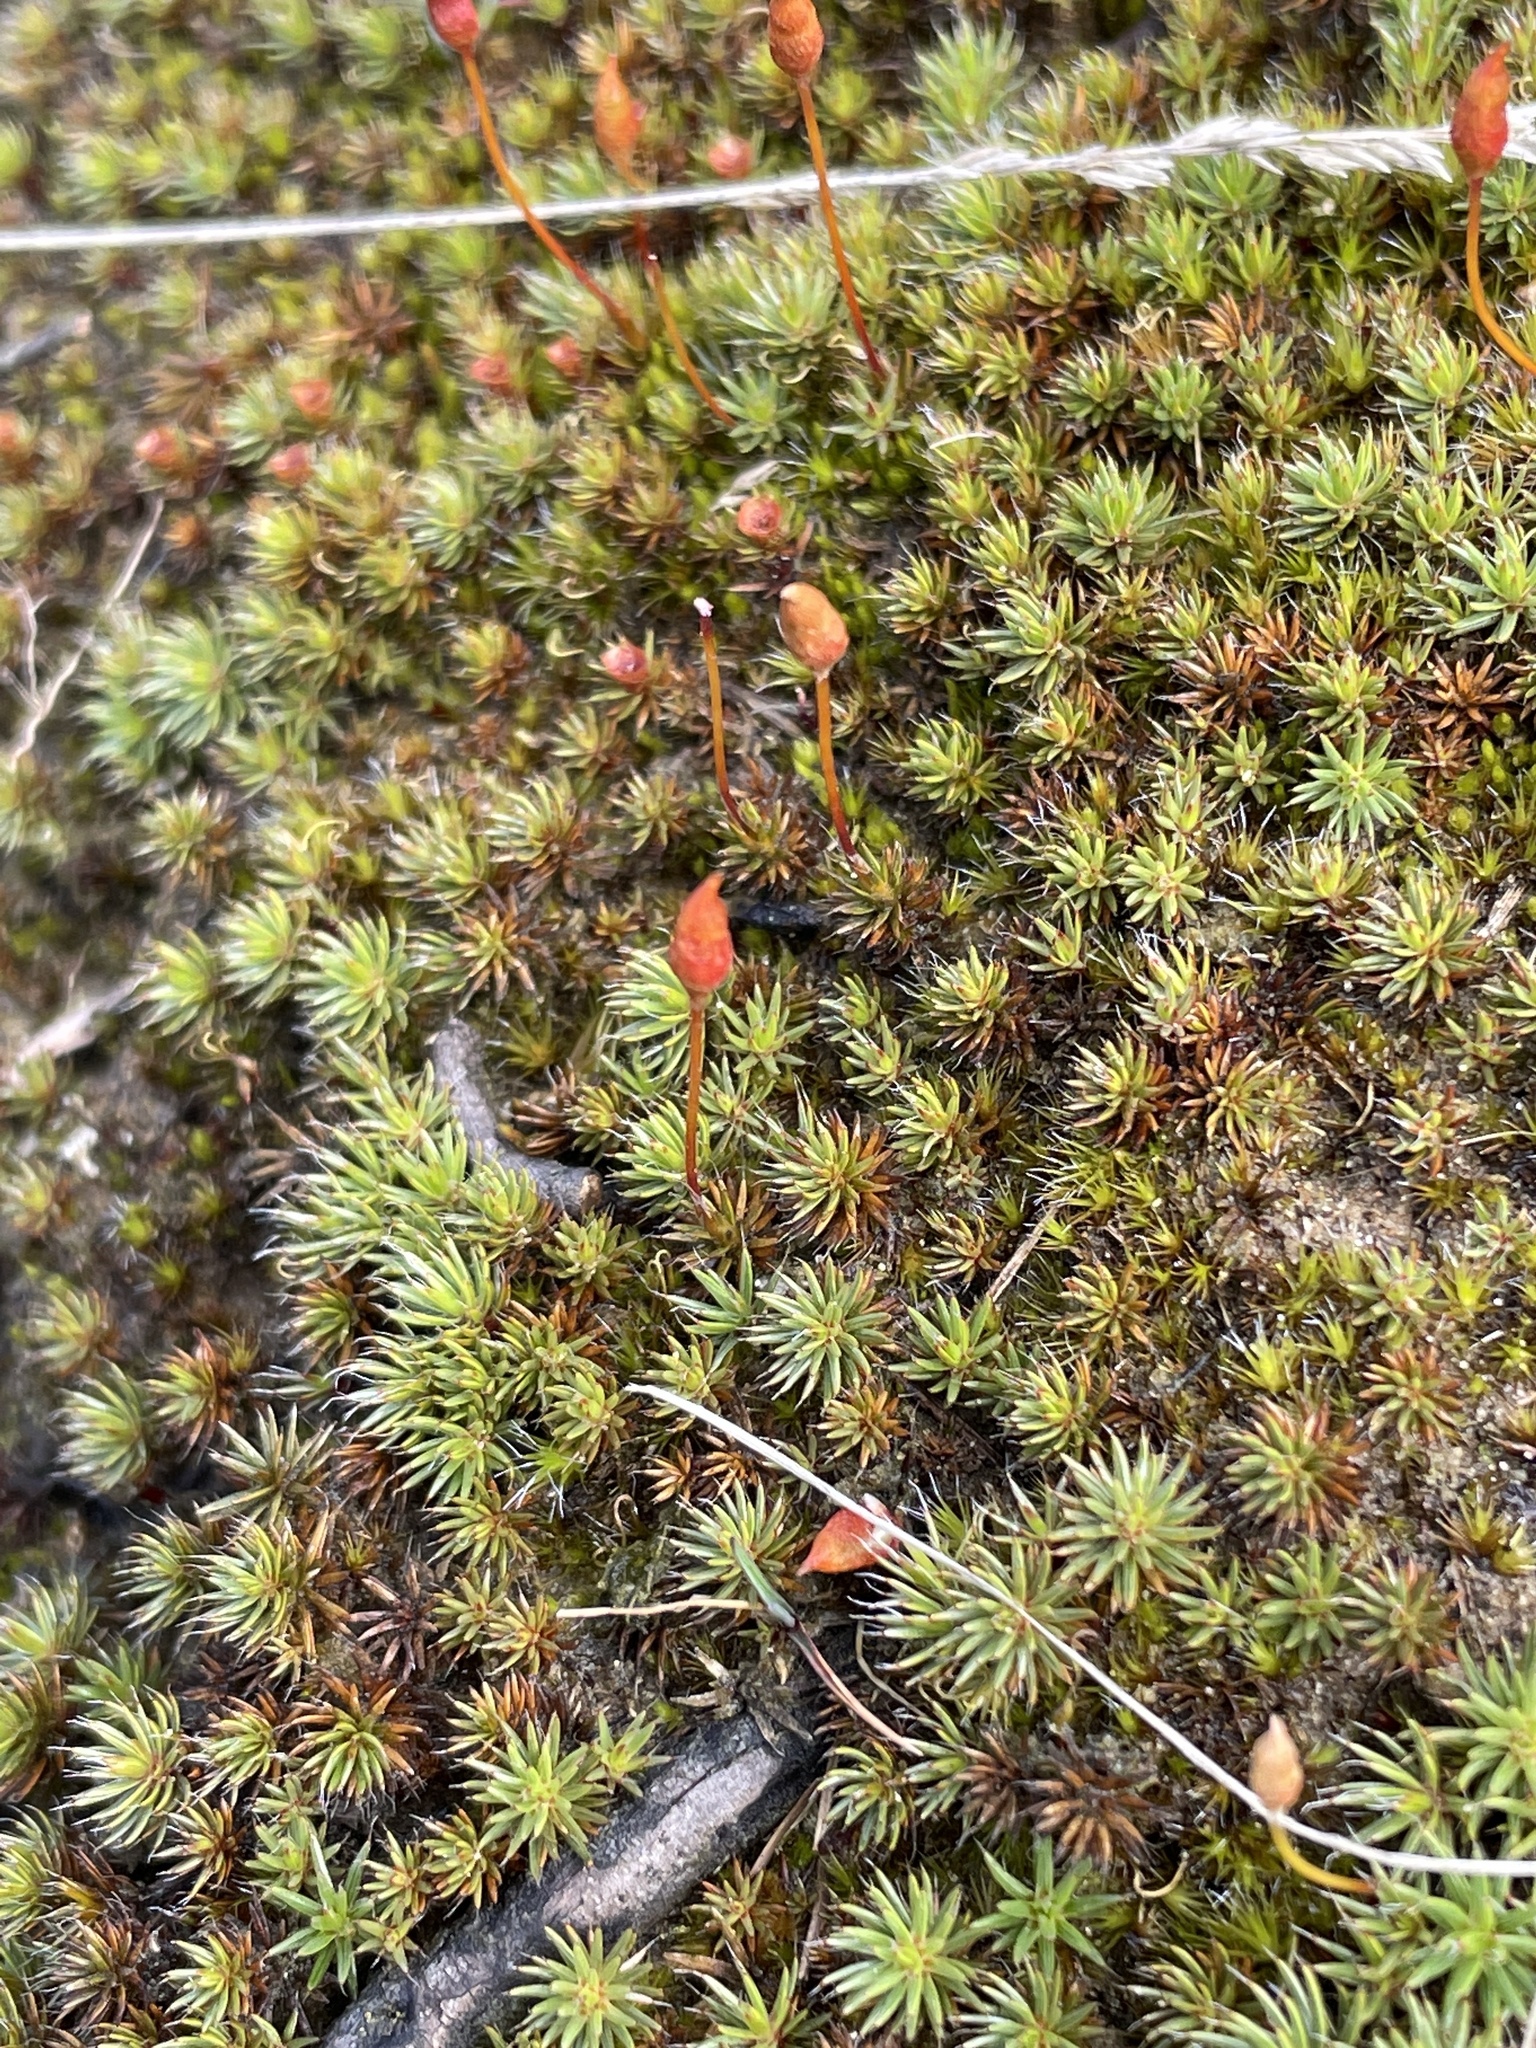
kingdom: Plantae
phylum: Bryophyta
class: Polytrichopsida
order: Polytrichales
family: Polytrichaceae
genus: Polytrichum
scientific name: Polytrichum piliferum
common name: Bristly haircap
